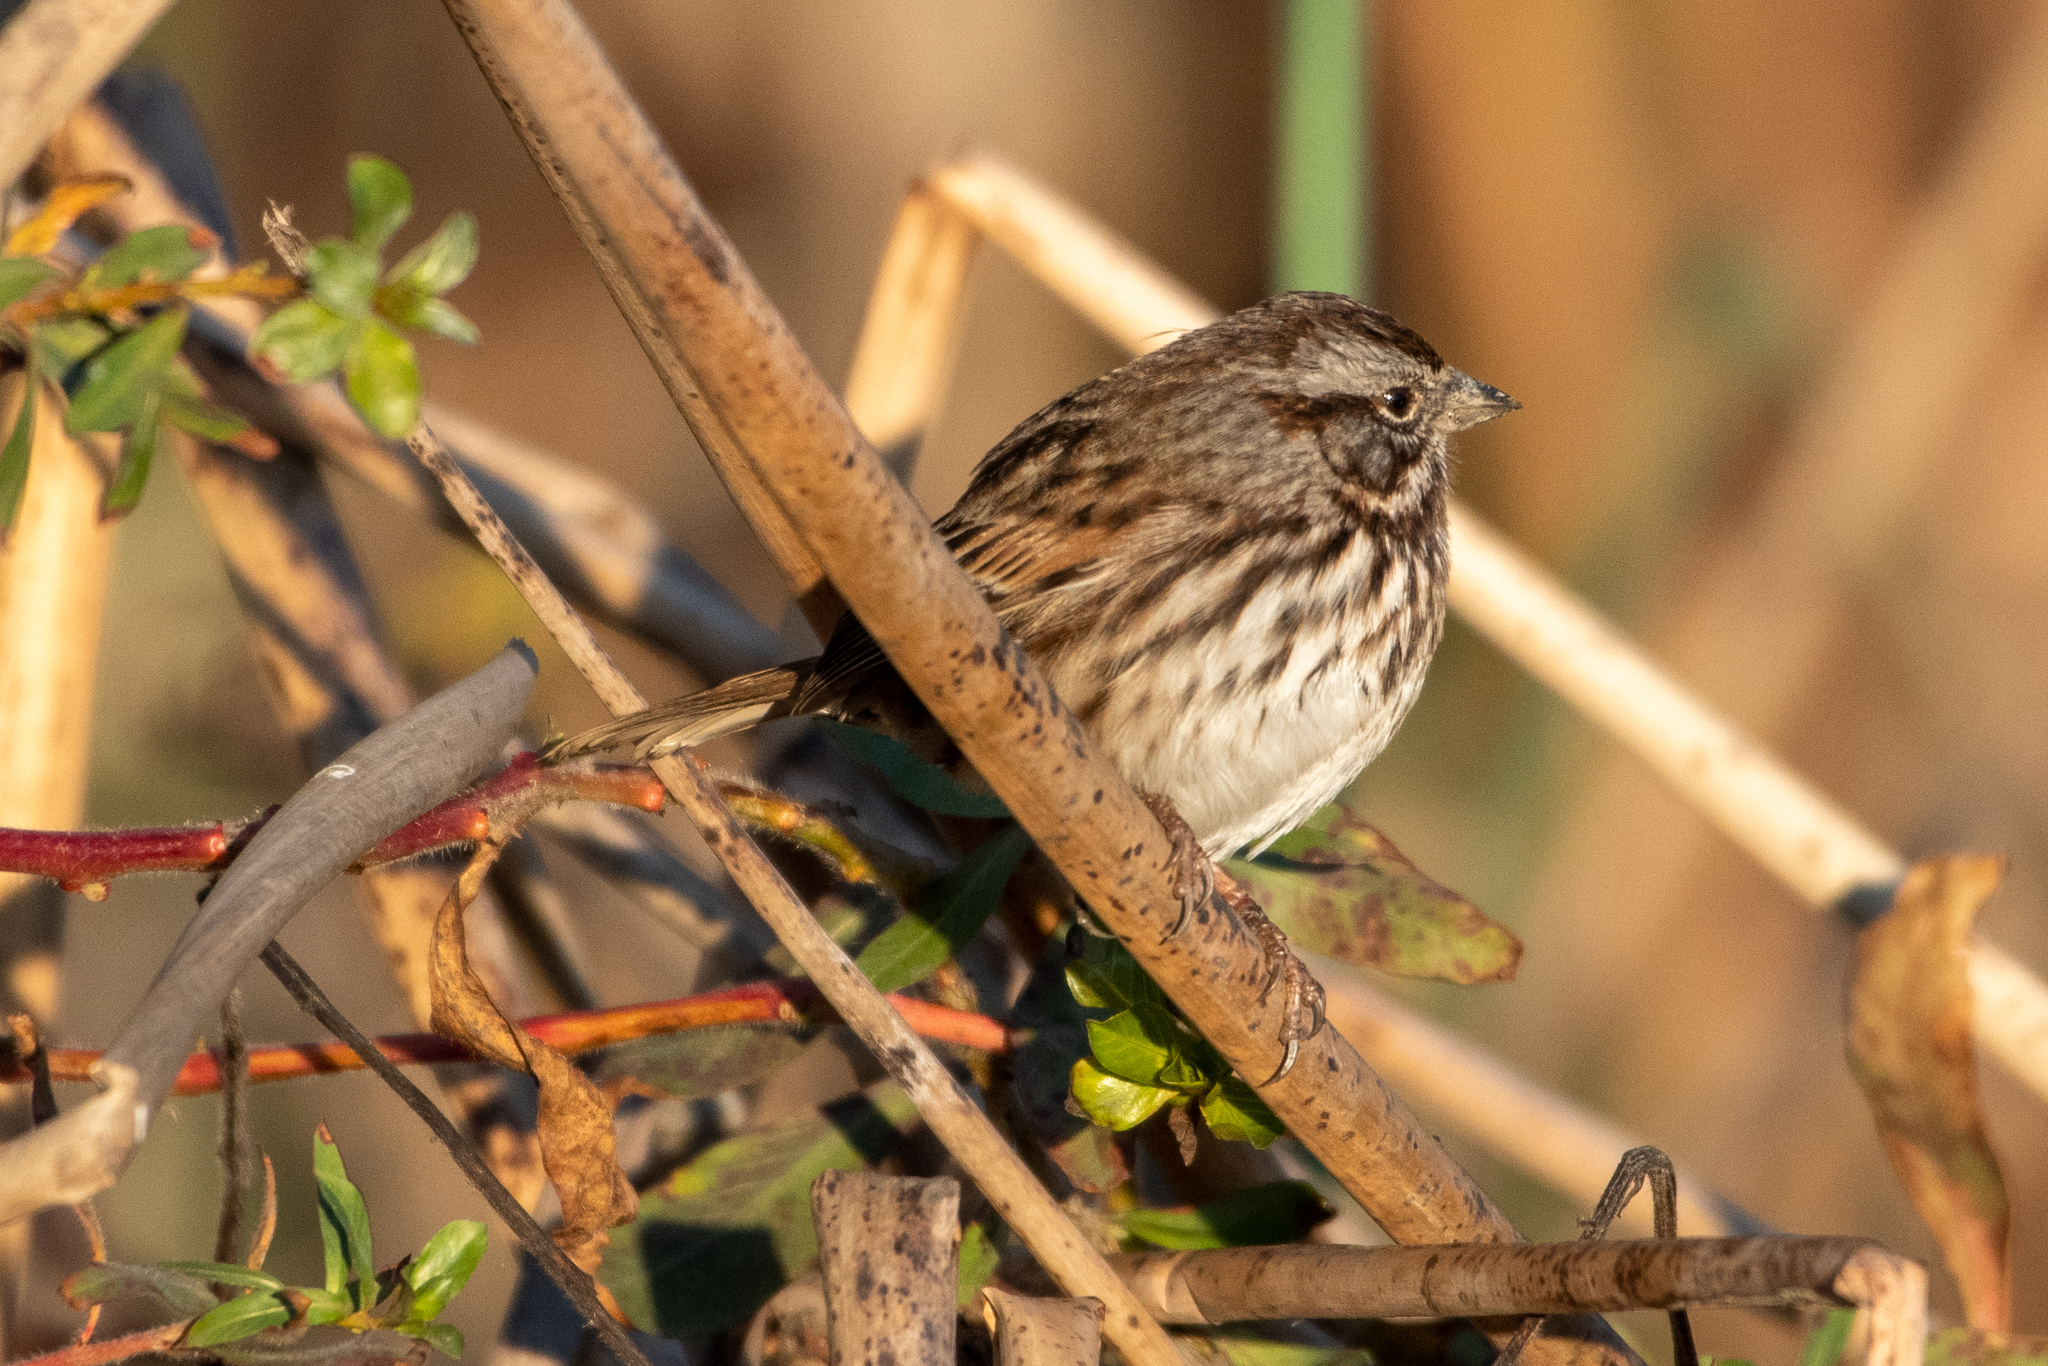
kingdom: Animalia
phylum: Chordata
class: Aves
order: Passeriformes
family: Passerellidae
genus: Melospiza
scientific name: Melospiza melodia
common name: Song sparrow
